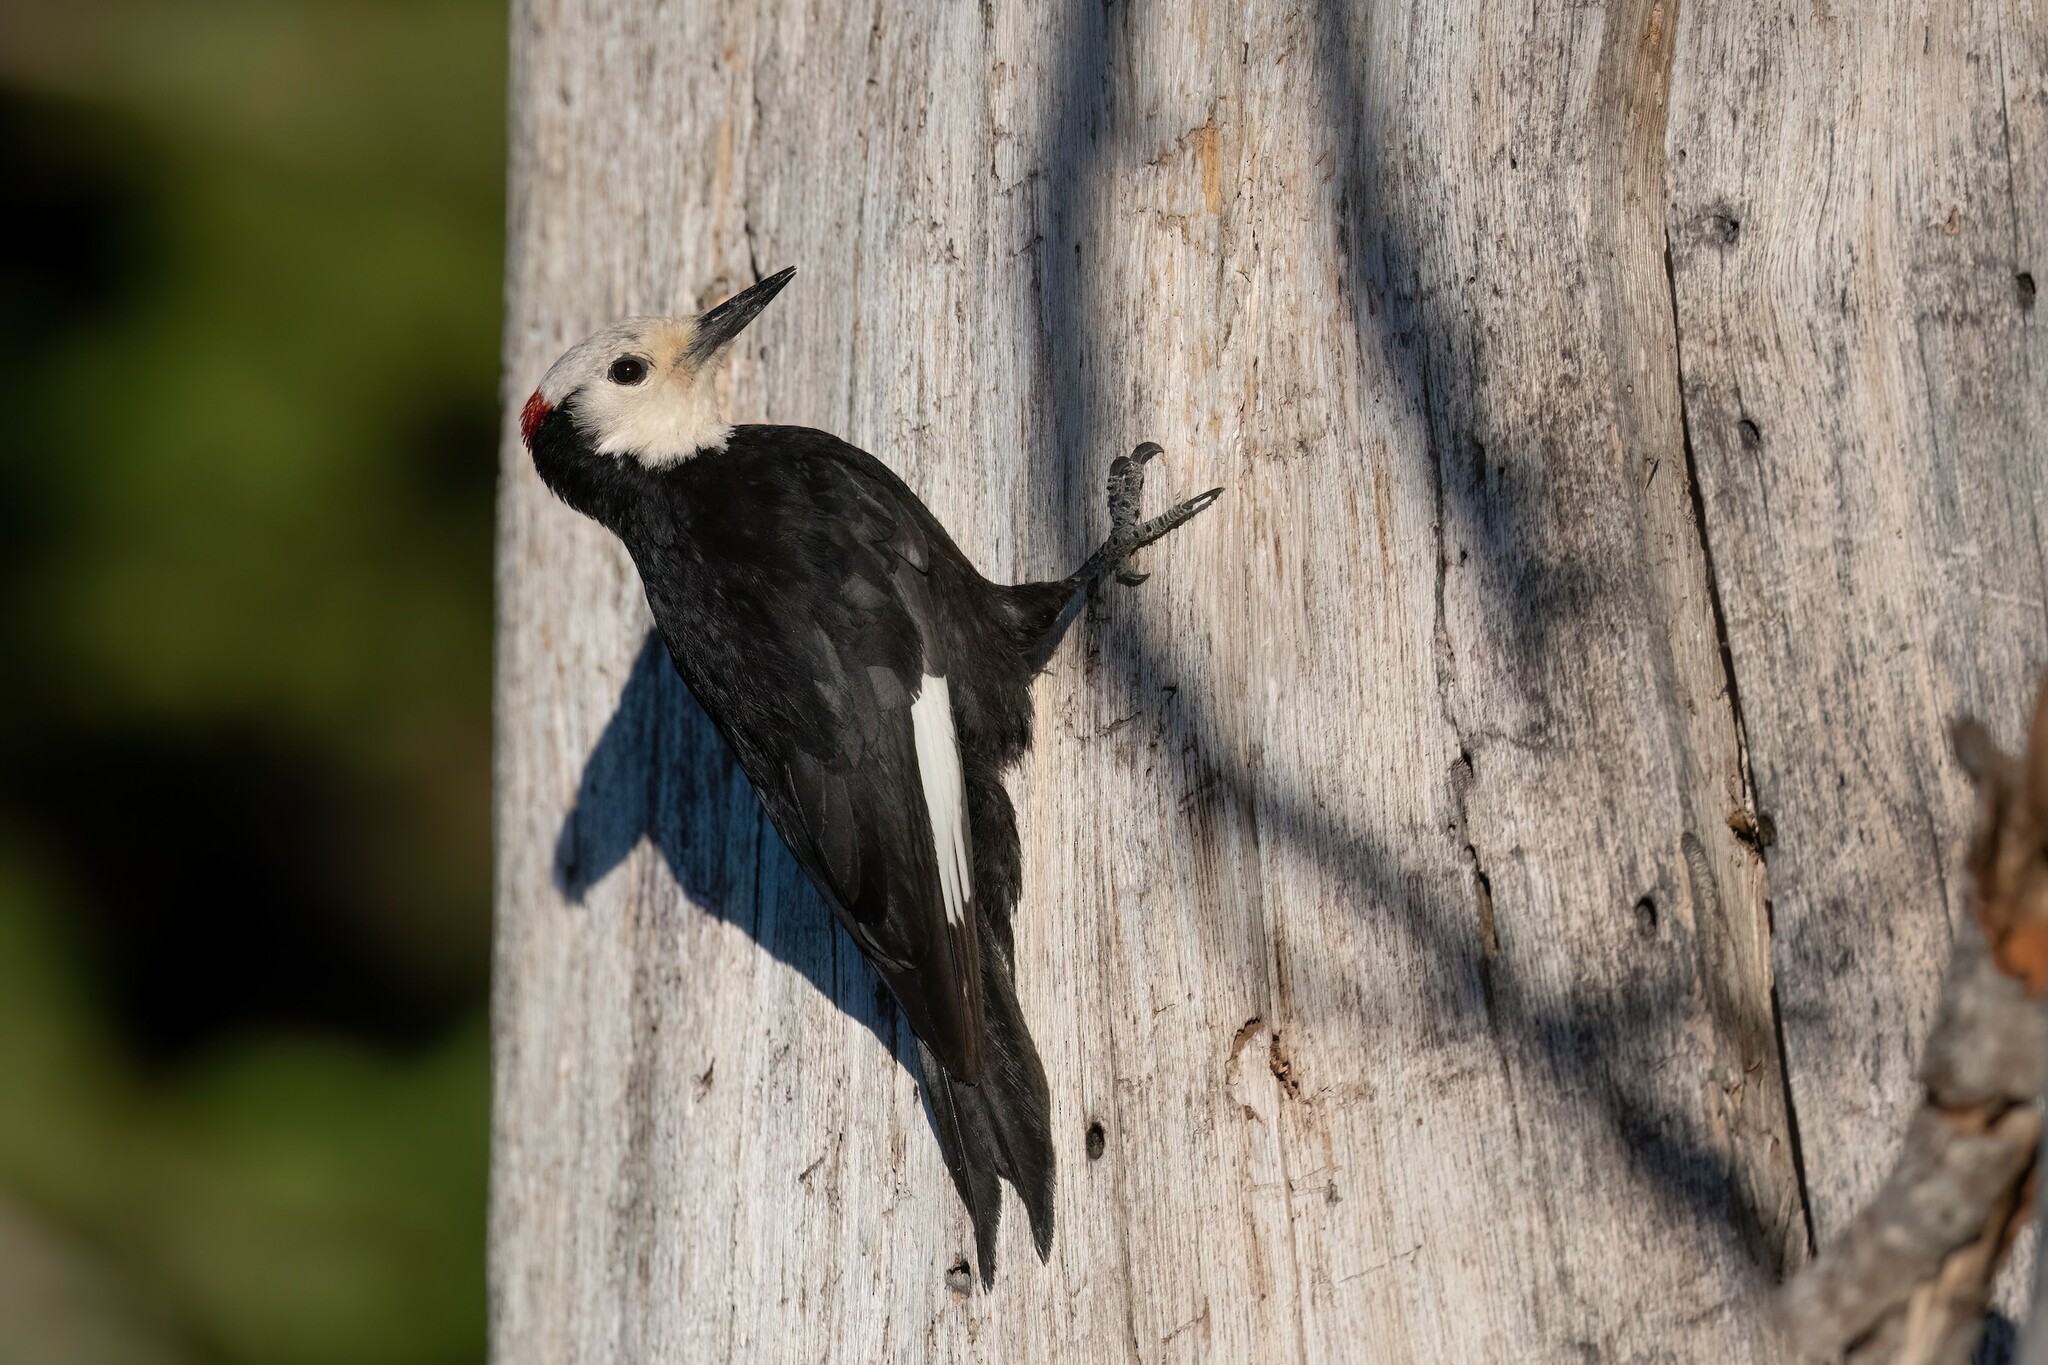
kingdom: Animalia
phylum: Chordata
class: Aves
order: Piciformes
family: Picidae
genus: Leuconotopicus
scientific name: Leuconotopicus albolarvatus
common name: White-headed woodpecker
